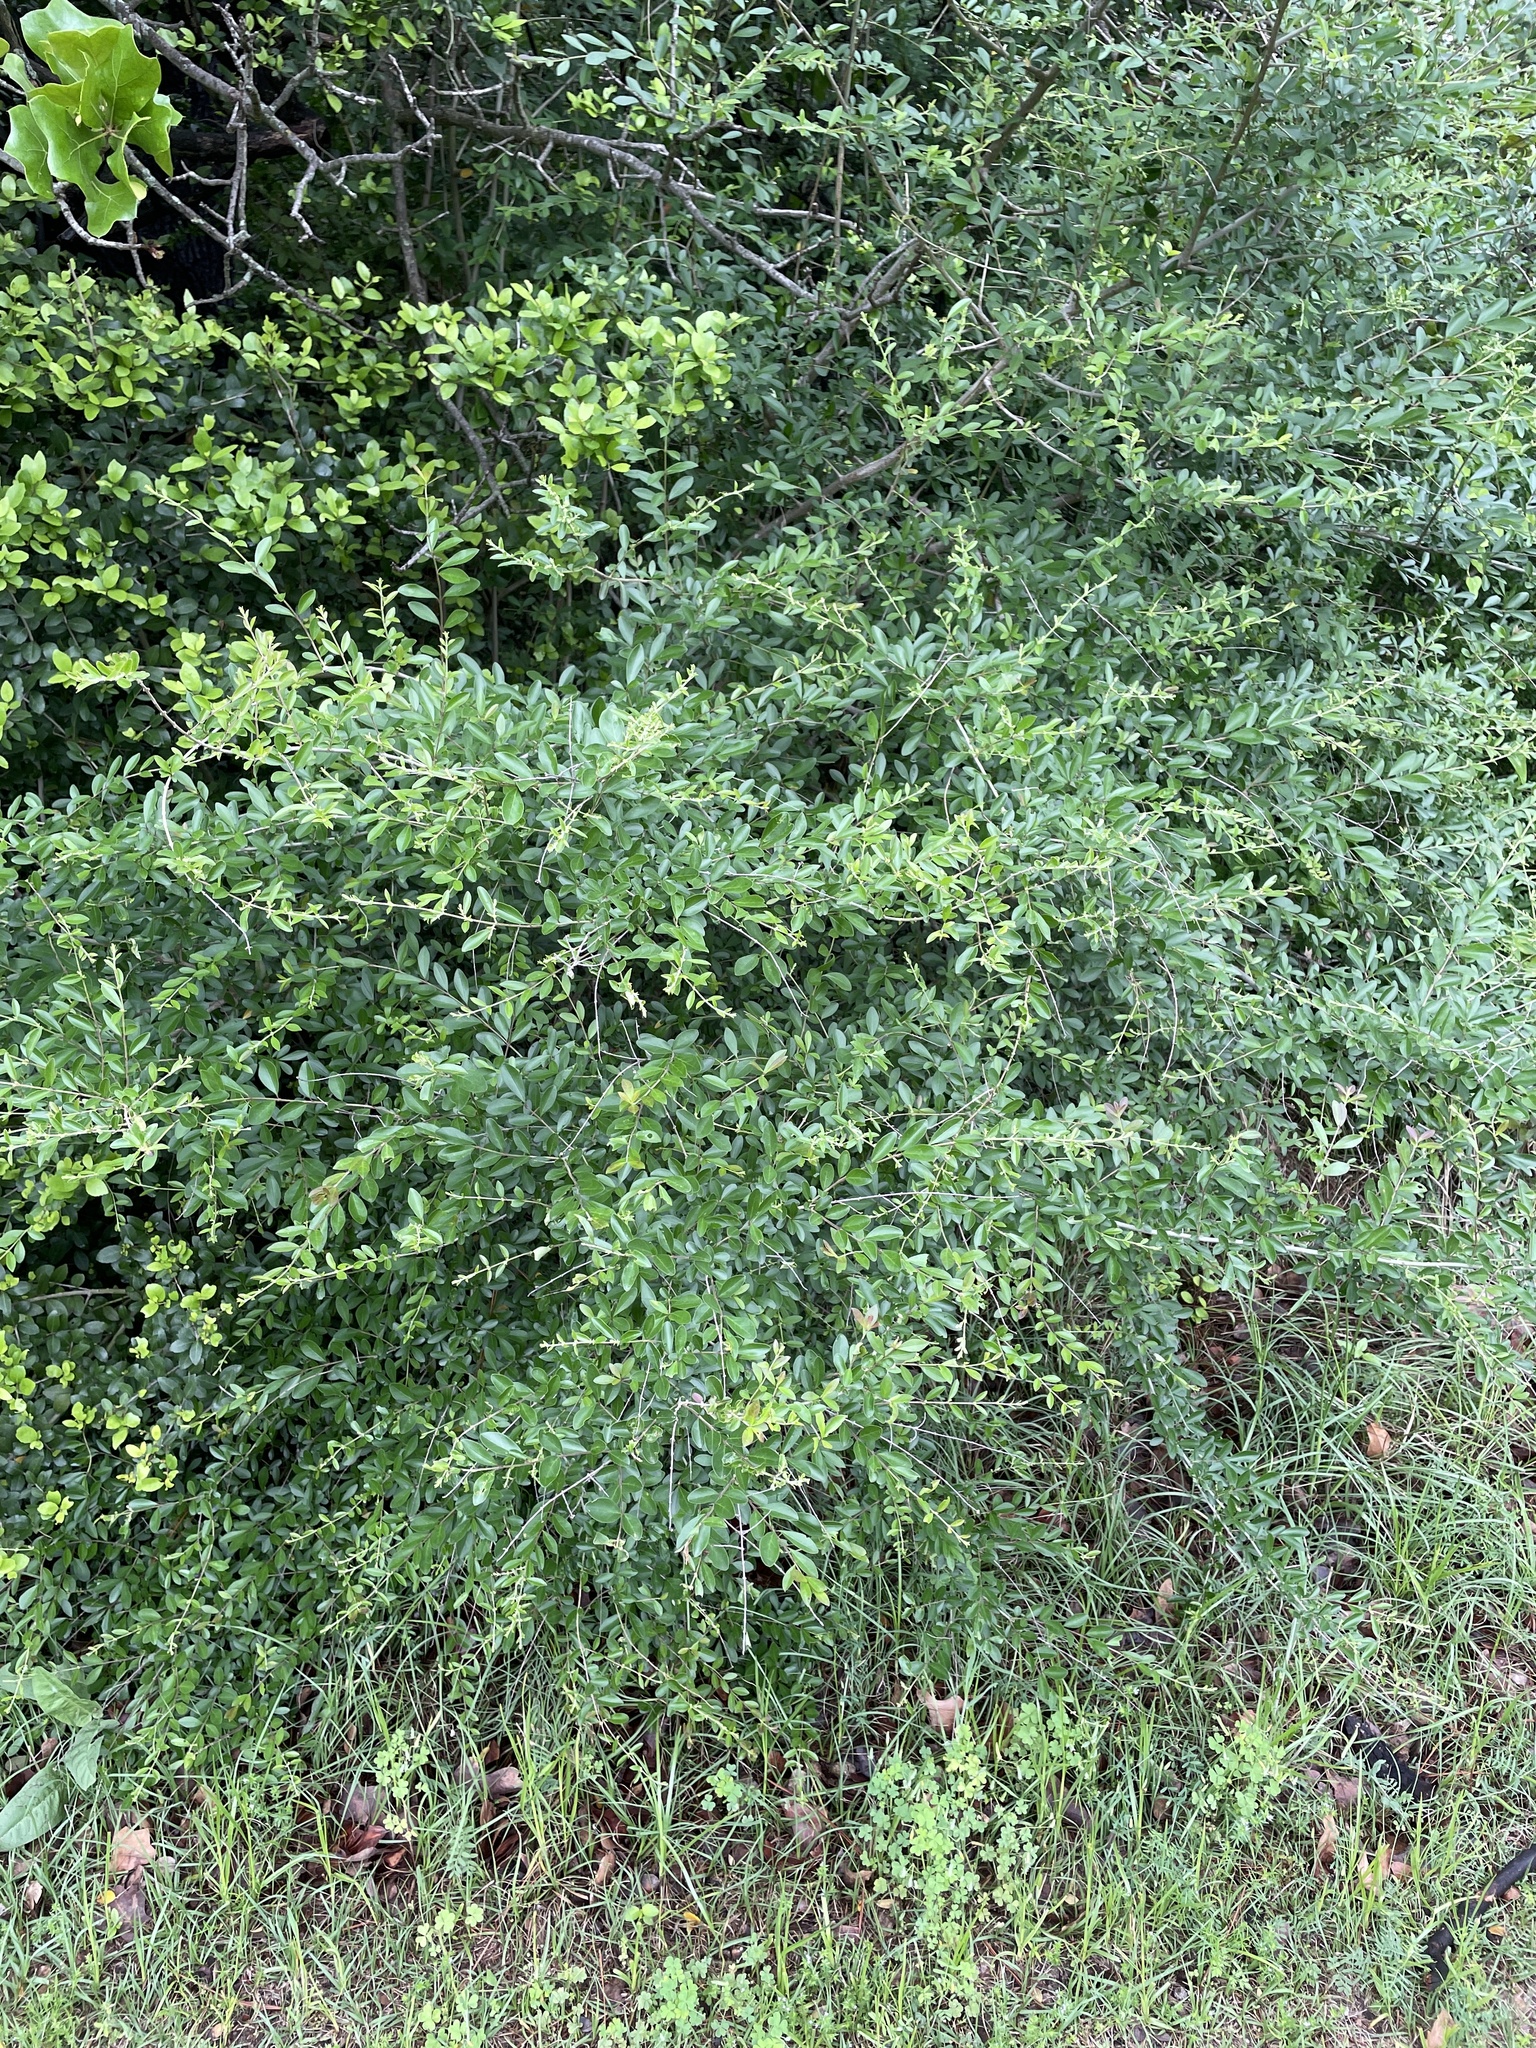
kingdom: Plantae
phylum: Tracheophyta
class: Magnoliopsida
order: Lamiales
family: Oleaceae
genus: Ligustrum
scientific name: Ligustrum quihoui
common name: Waxyleaf privet
